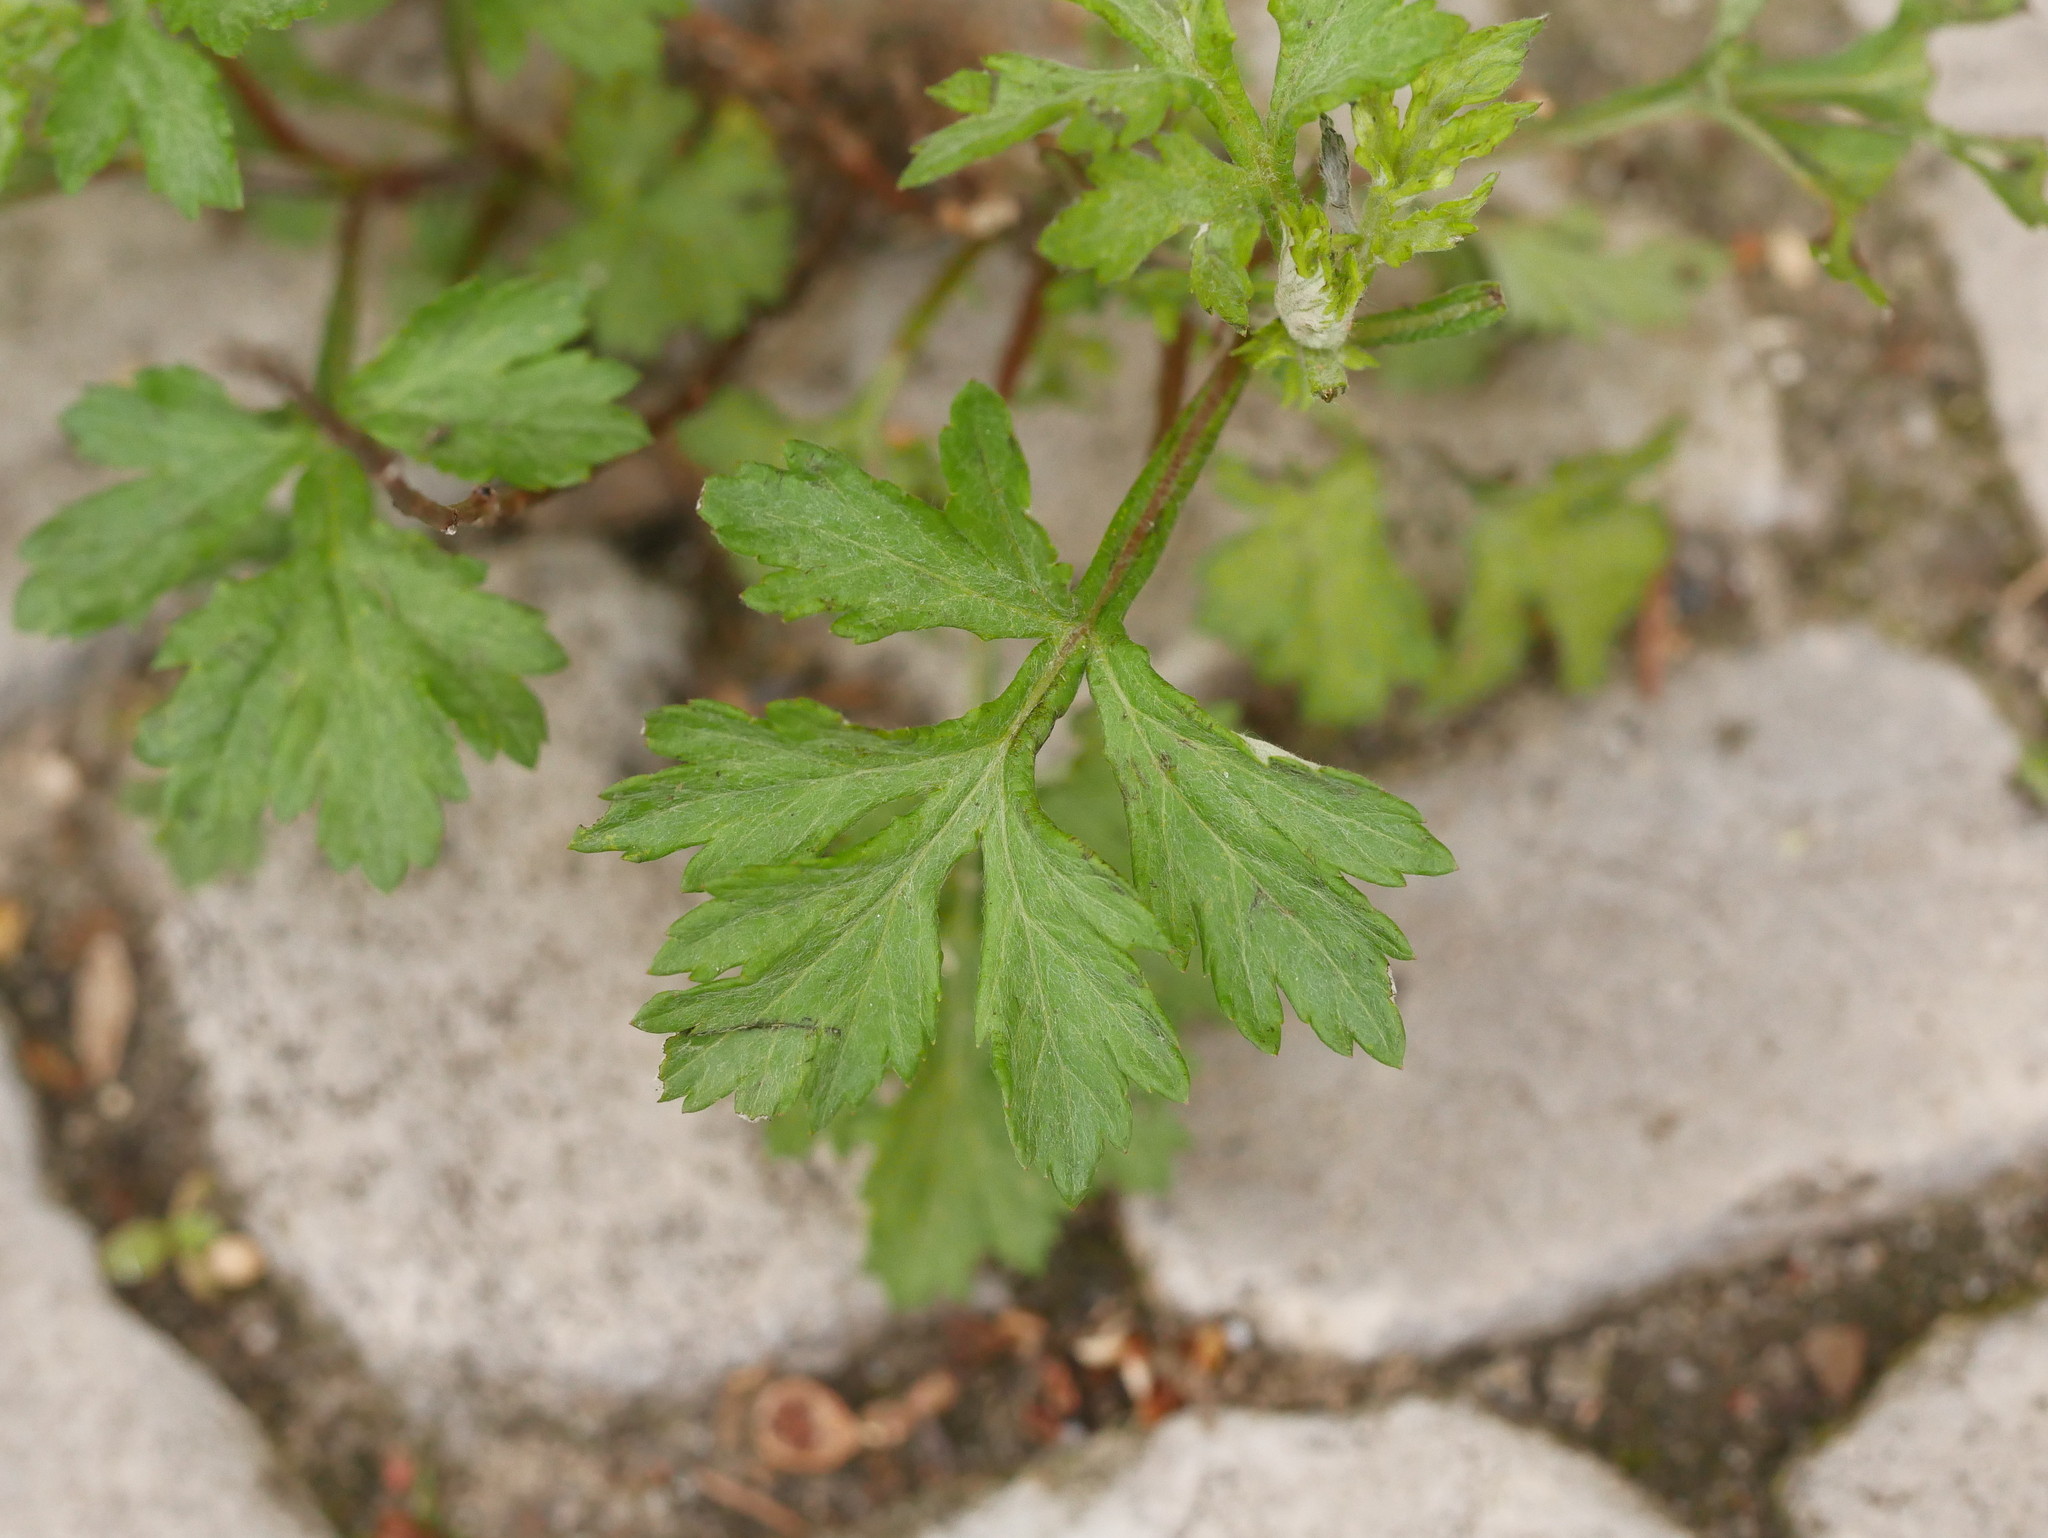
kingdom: Plantae
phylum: Tracheophyta
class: Magnoliopsida
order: Asterales
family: Asteraceae
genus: Artemisia
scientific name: Artemisia vulgaris
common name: Mugwort
